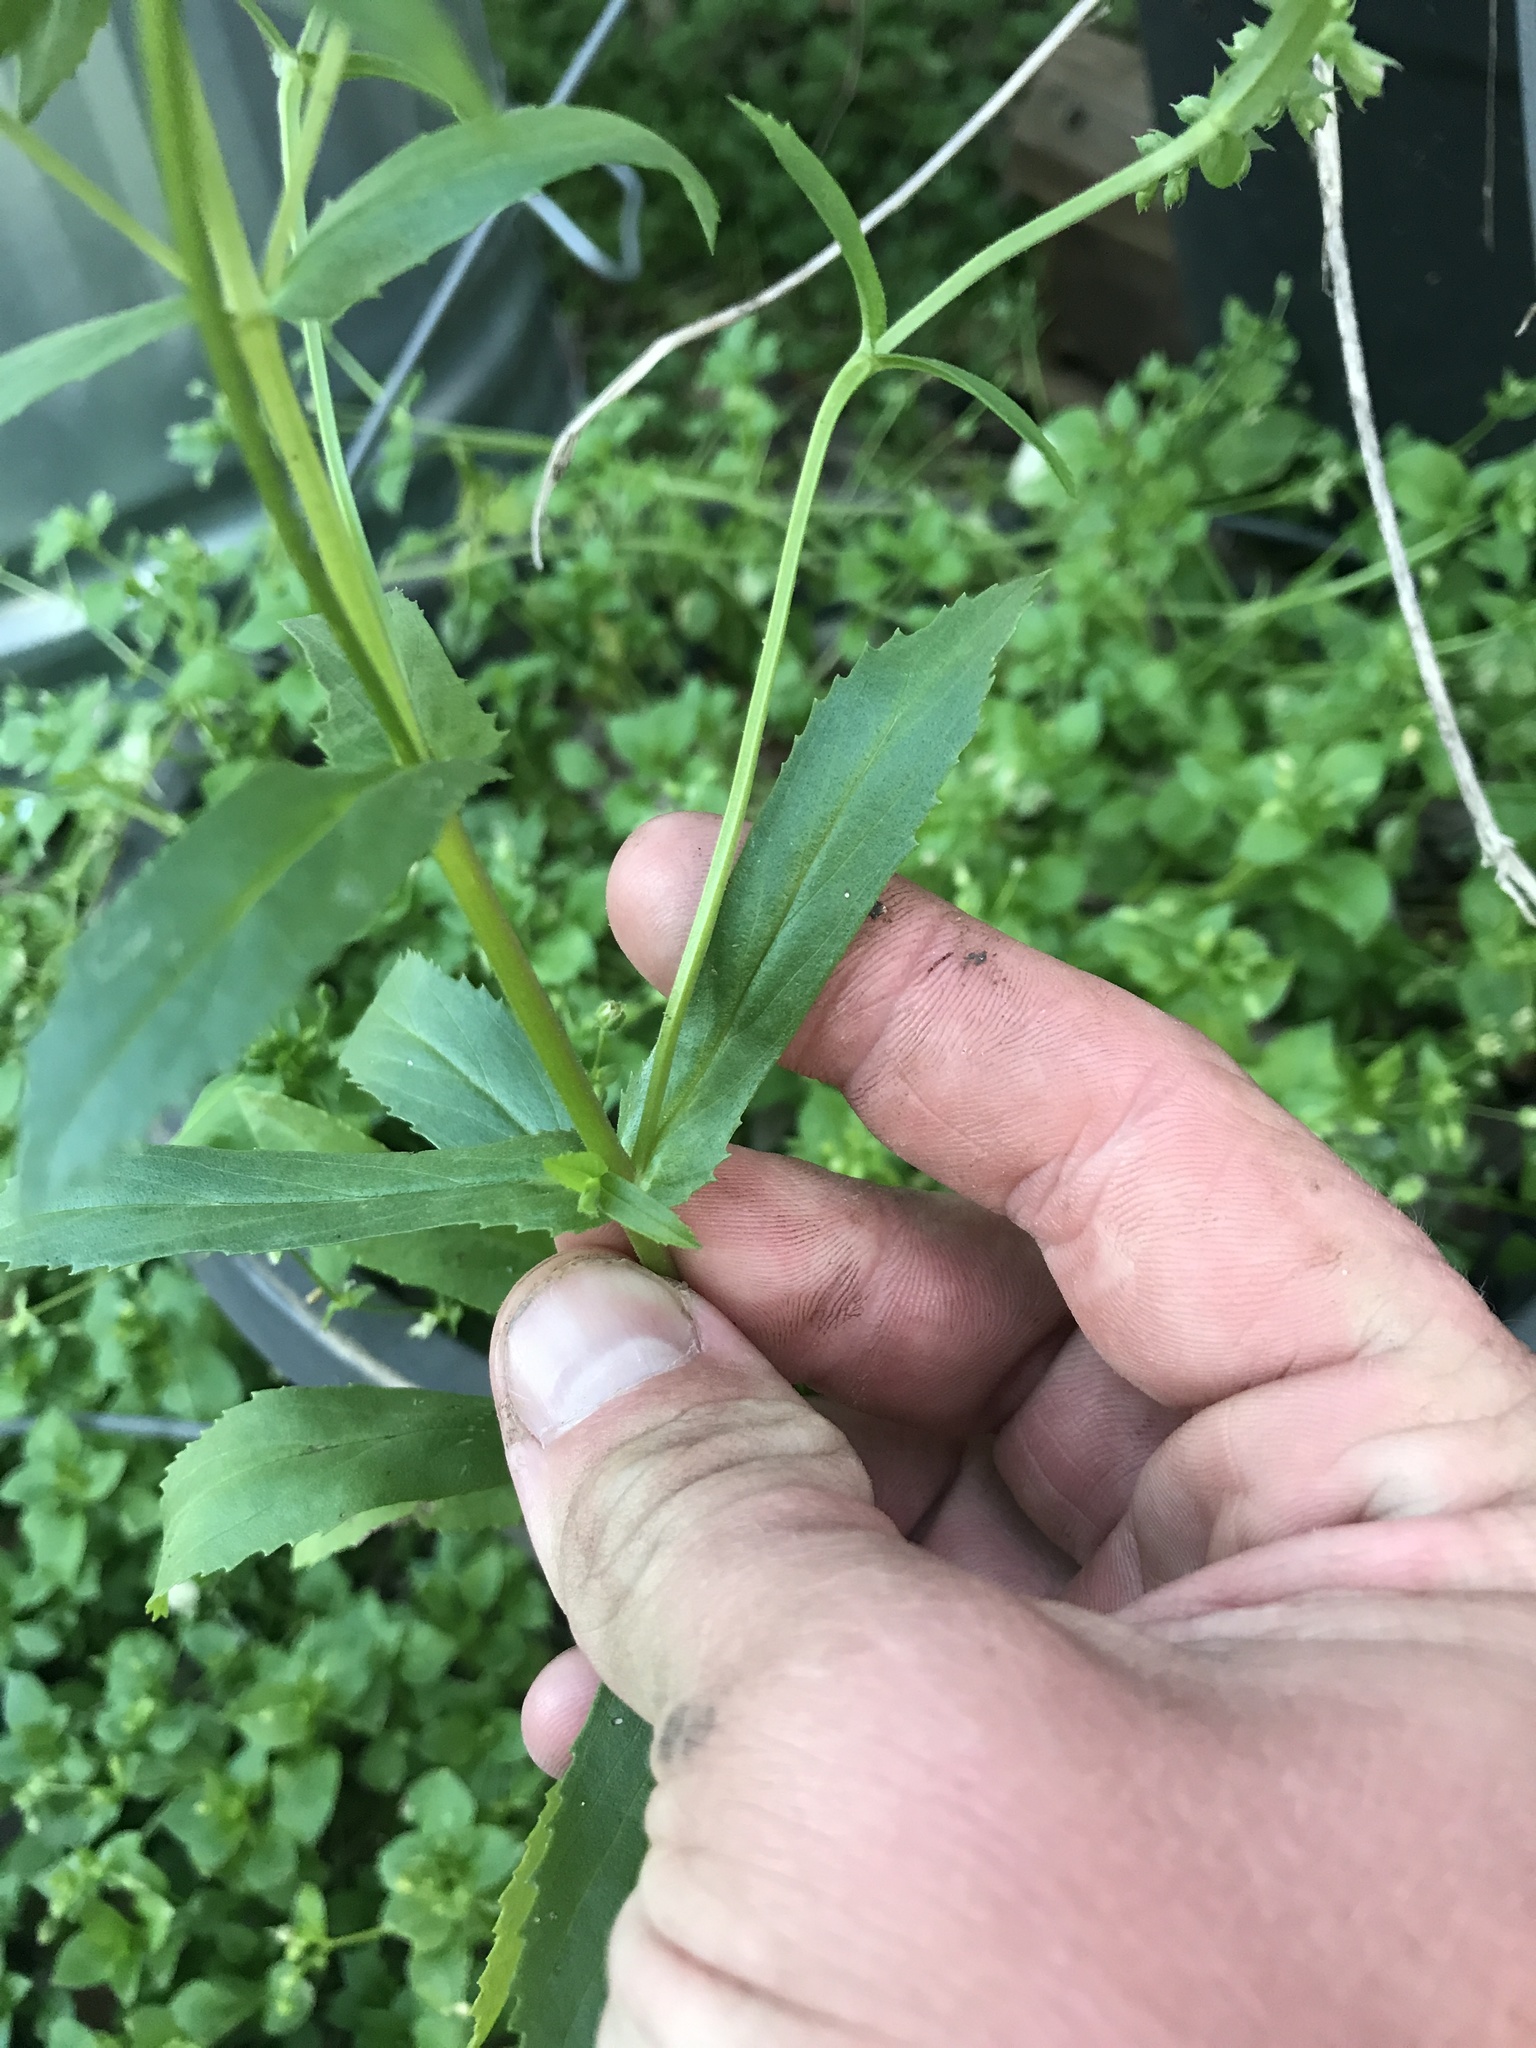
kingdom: Plantae
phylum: Tracheophyta
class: Magnoliopsida
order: Lamiales
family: Lamiaceae
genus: Warnockia
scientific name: Warnockia scutellarioides
